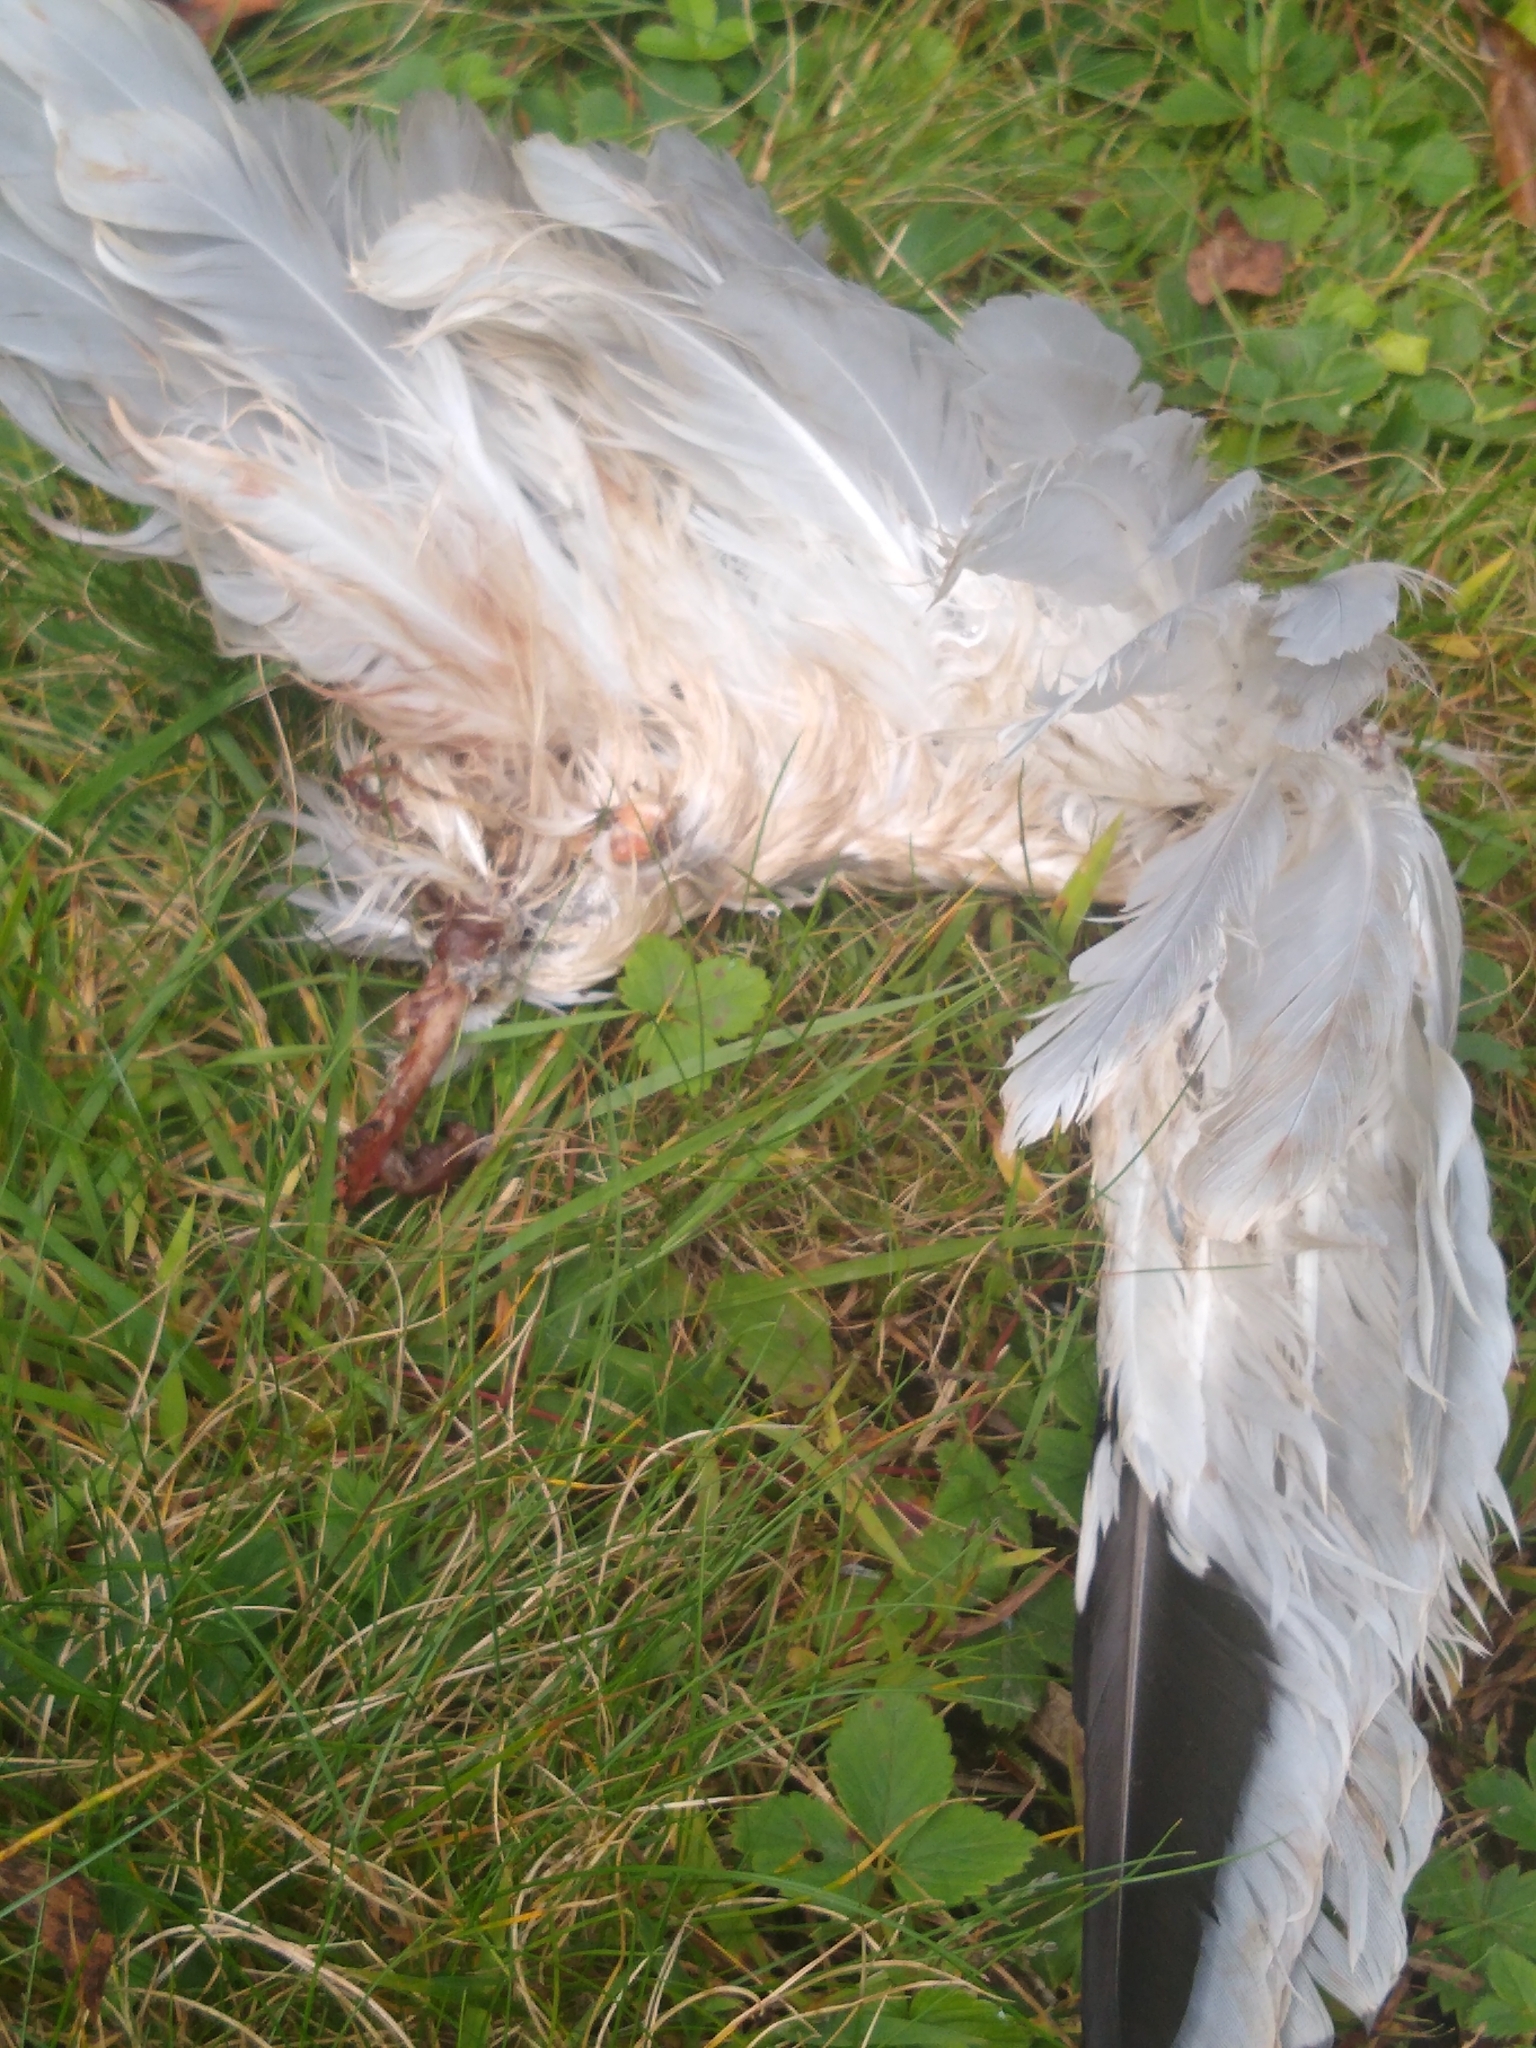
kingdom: Animalia
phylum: Chordata
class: Aves
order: Charadriiformes
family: Laridae
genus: Larus
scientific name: Larus delawarensis
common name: Ring-billed gull
